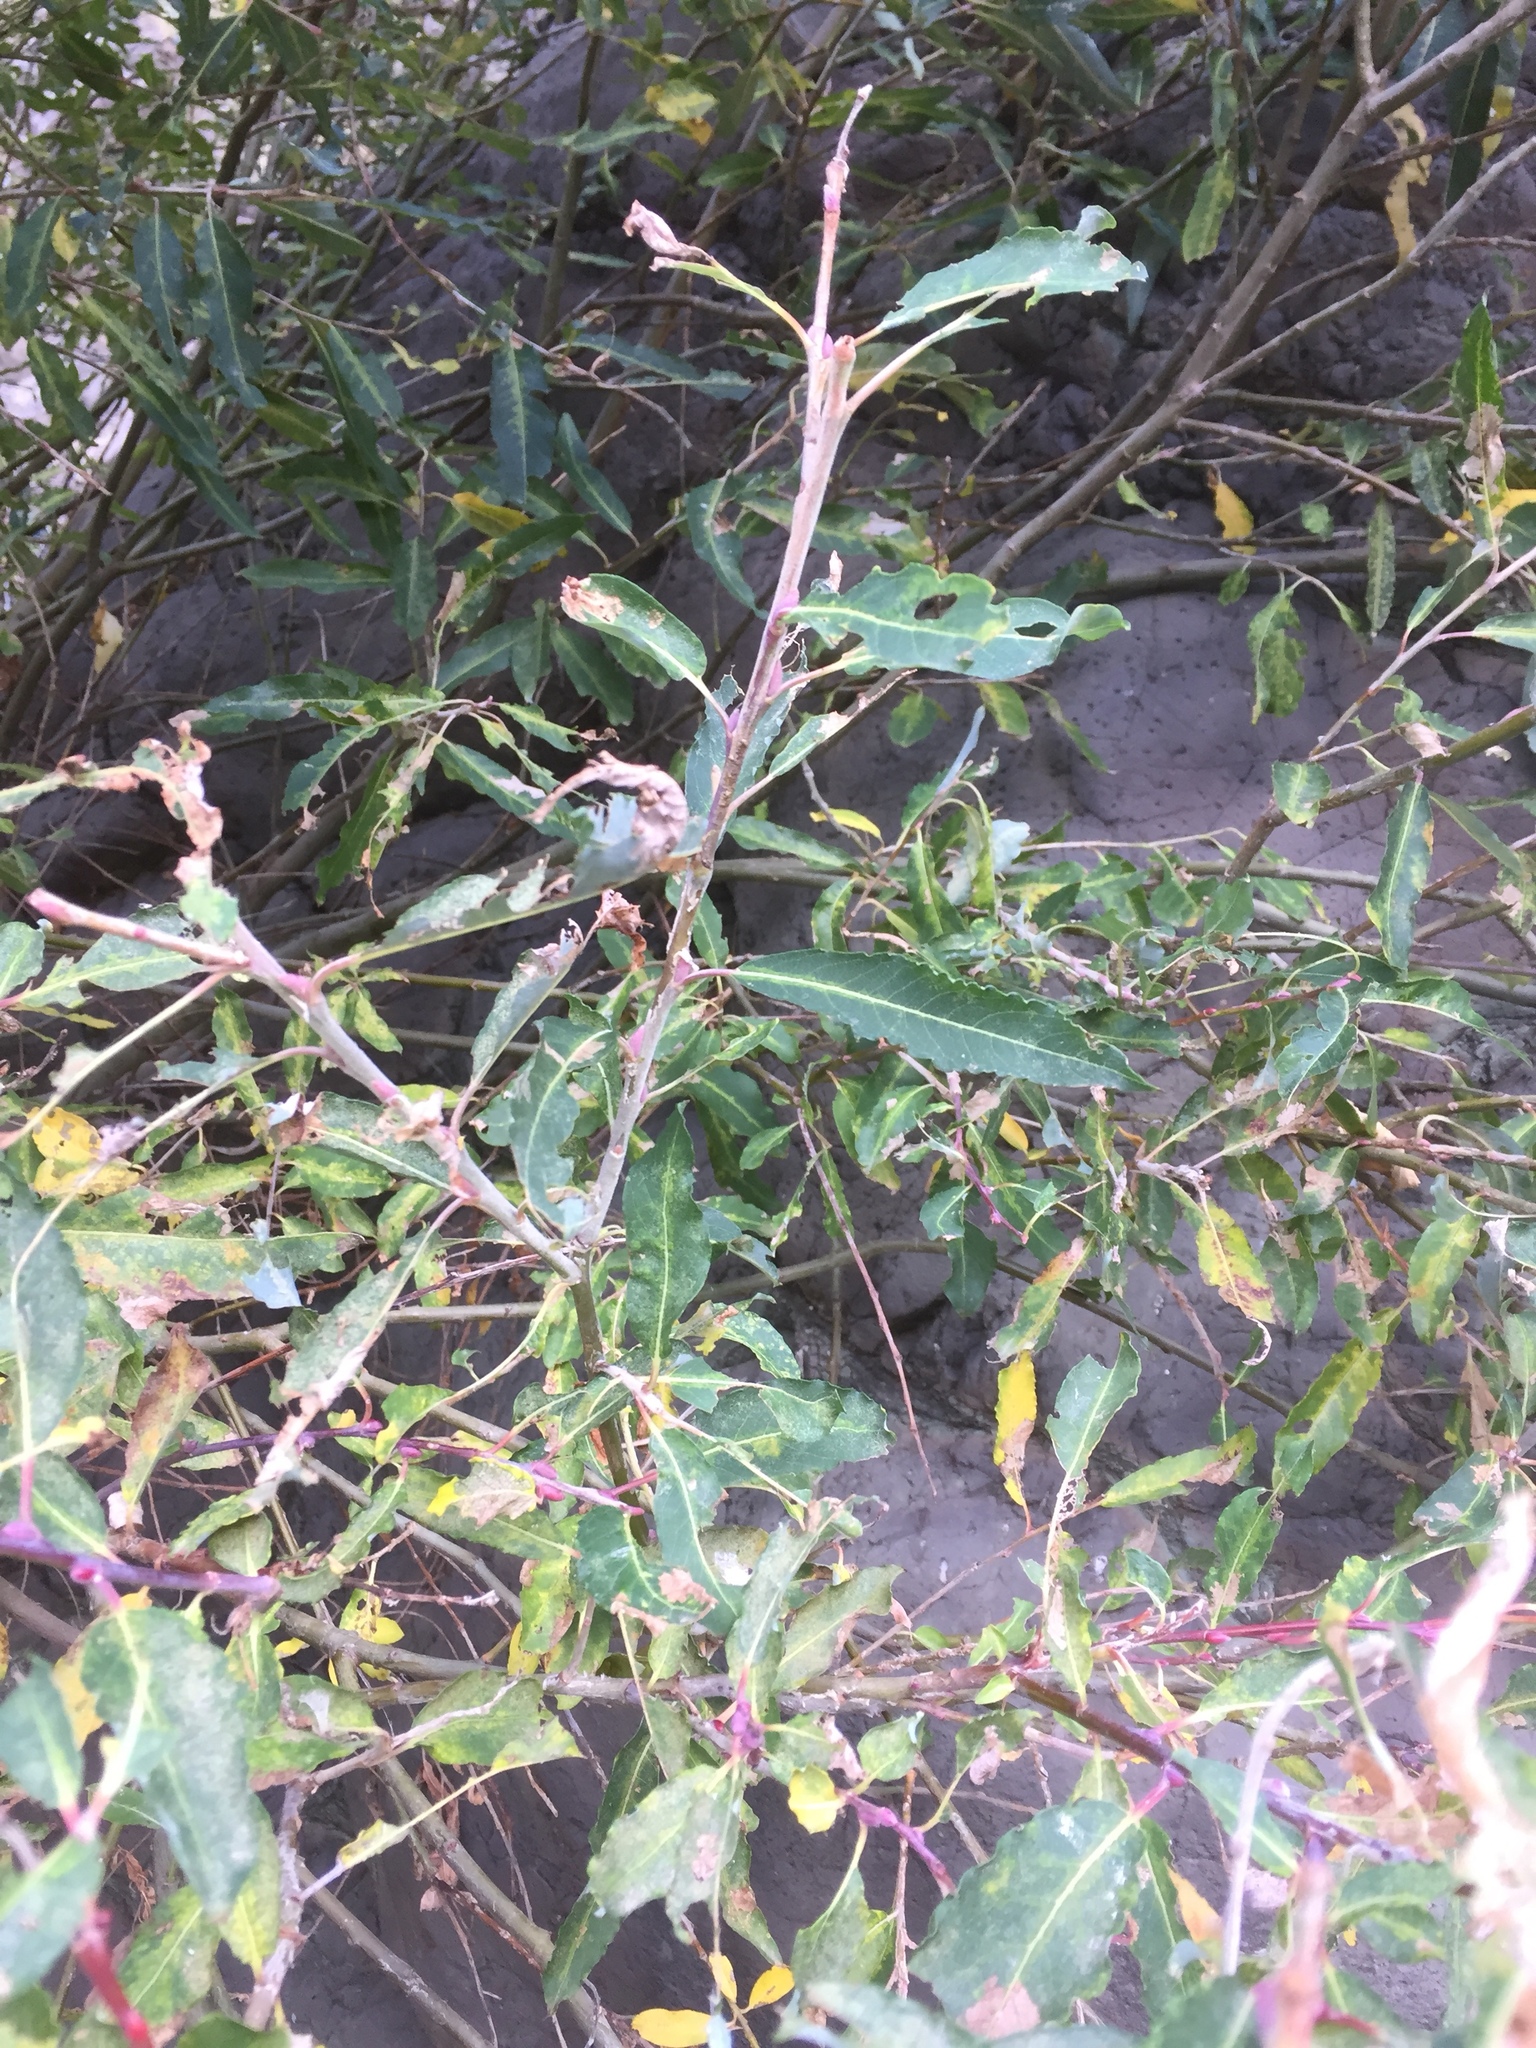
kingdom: Plantae
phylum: Tracheophyta
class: Magnoliopsida
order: Malpighiales
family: Salicaceae
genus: Salix
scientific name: Salix canariensis
